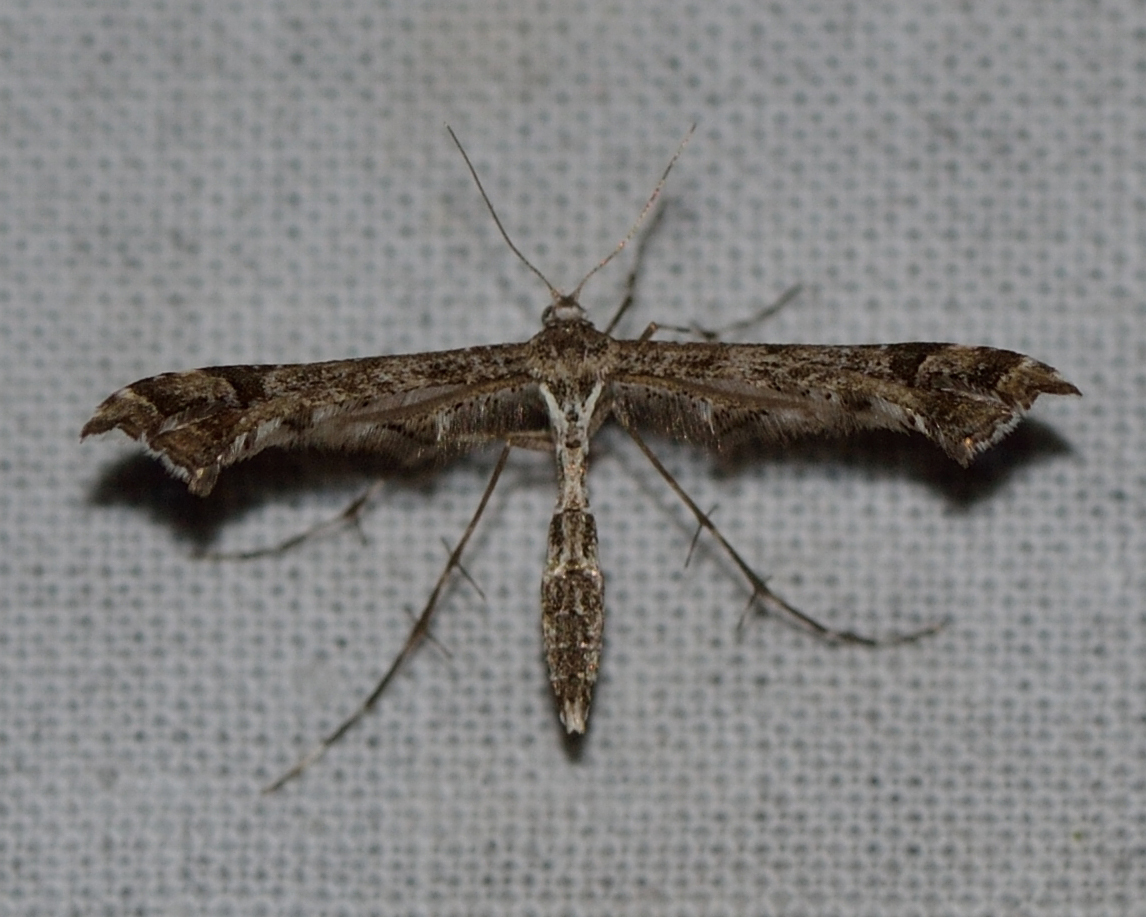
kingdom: Animalia
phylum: Arthropoda
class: Insecta
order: Lepidoptera
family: Pterophoridae
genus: Amblyptilia
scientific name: Amblyptilia punctidactyla
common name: Brindled plume
